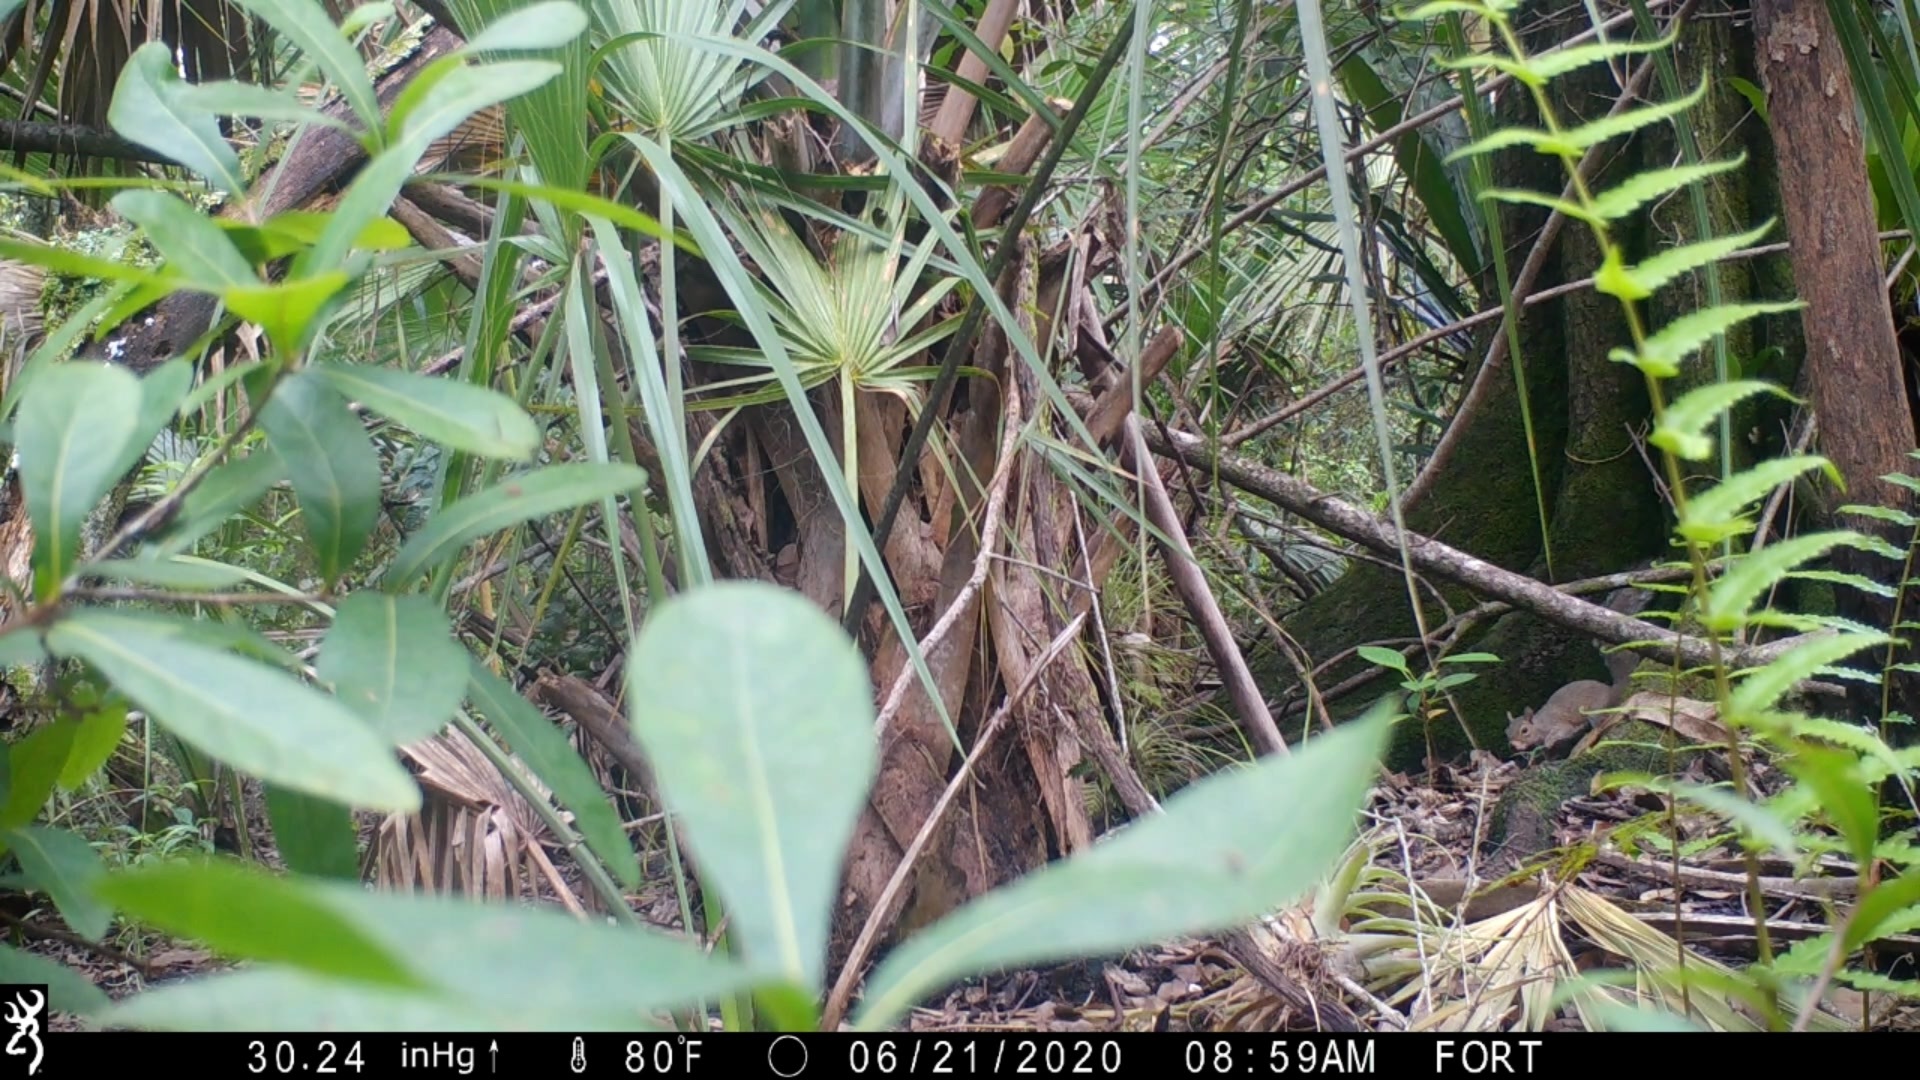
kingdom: Animalia
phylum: Chordata
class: Mammalia
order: Rodentia
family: Sciuridae
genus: Sciurus
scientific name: Sciurus carolinensis
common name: Eastern gray squirrel
